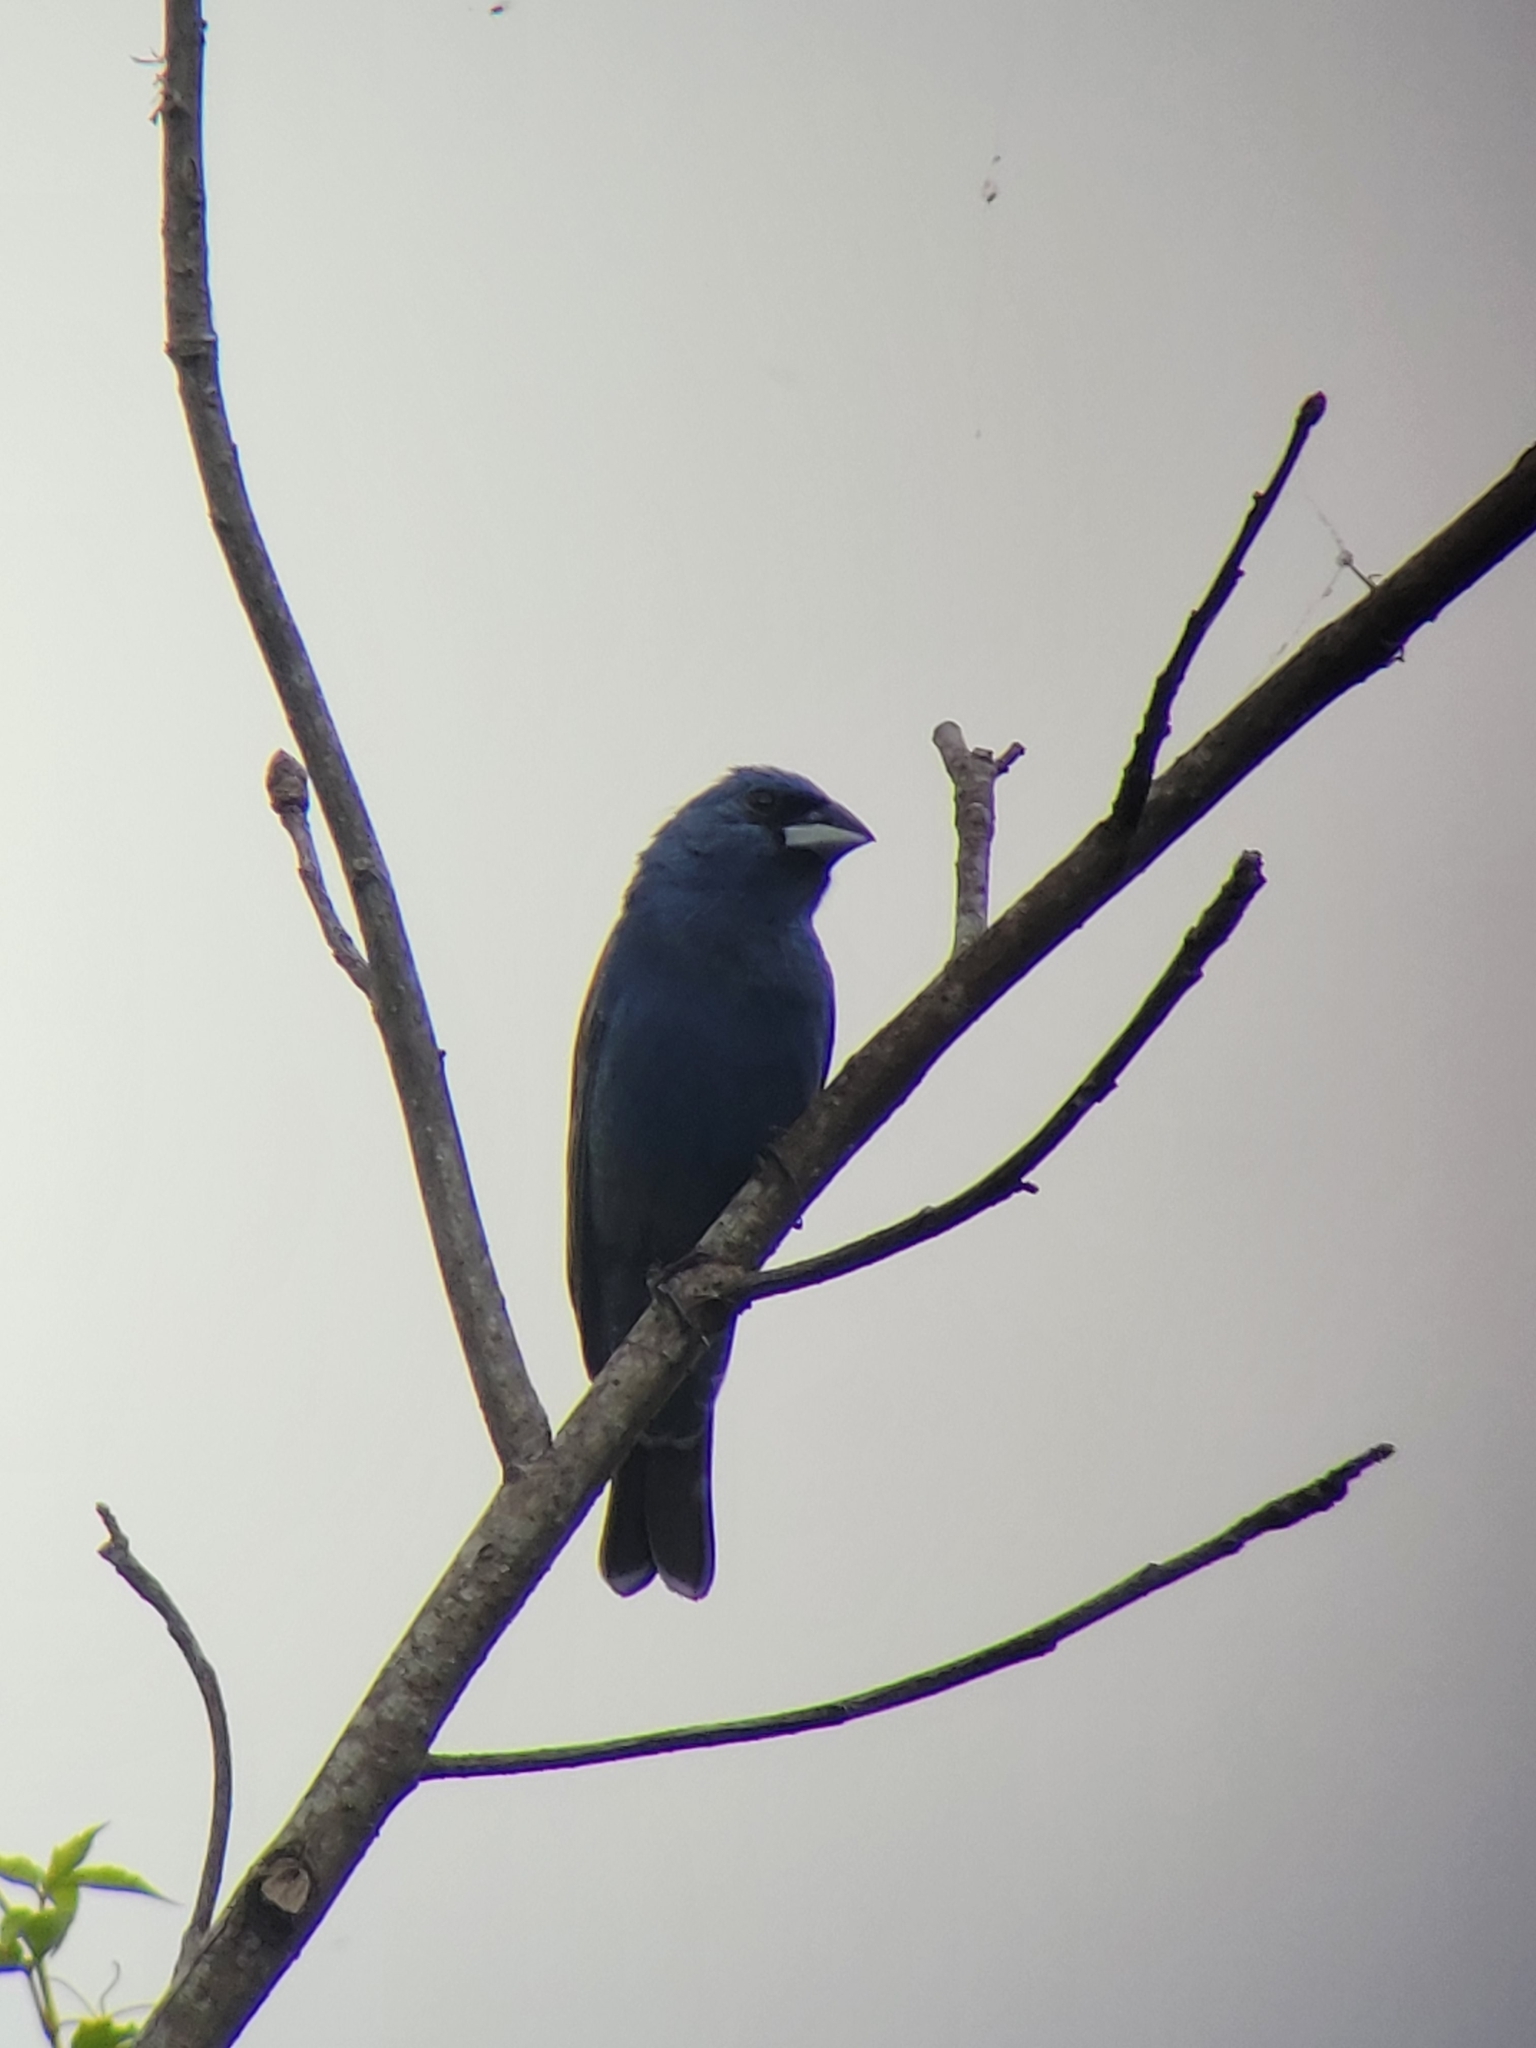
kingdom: Animalia
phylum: Chordata
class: Aves
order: Passeriformes
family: Cardinalidae
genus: Passerina
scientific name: Passerina caerulea
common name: Blue grosbeak
